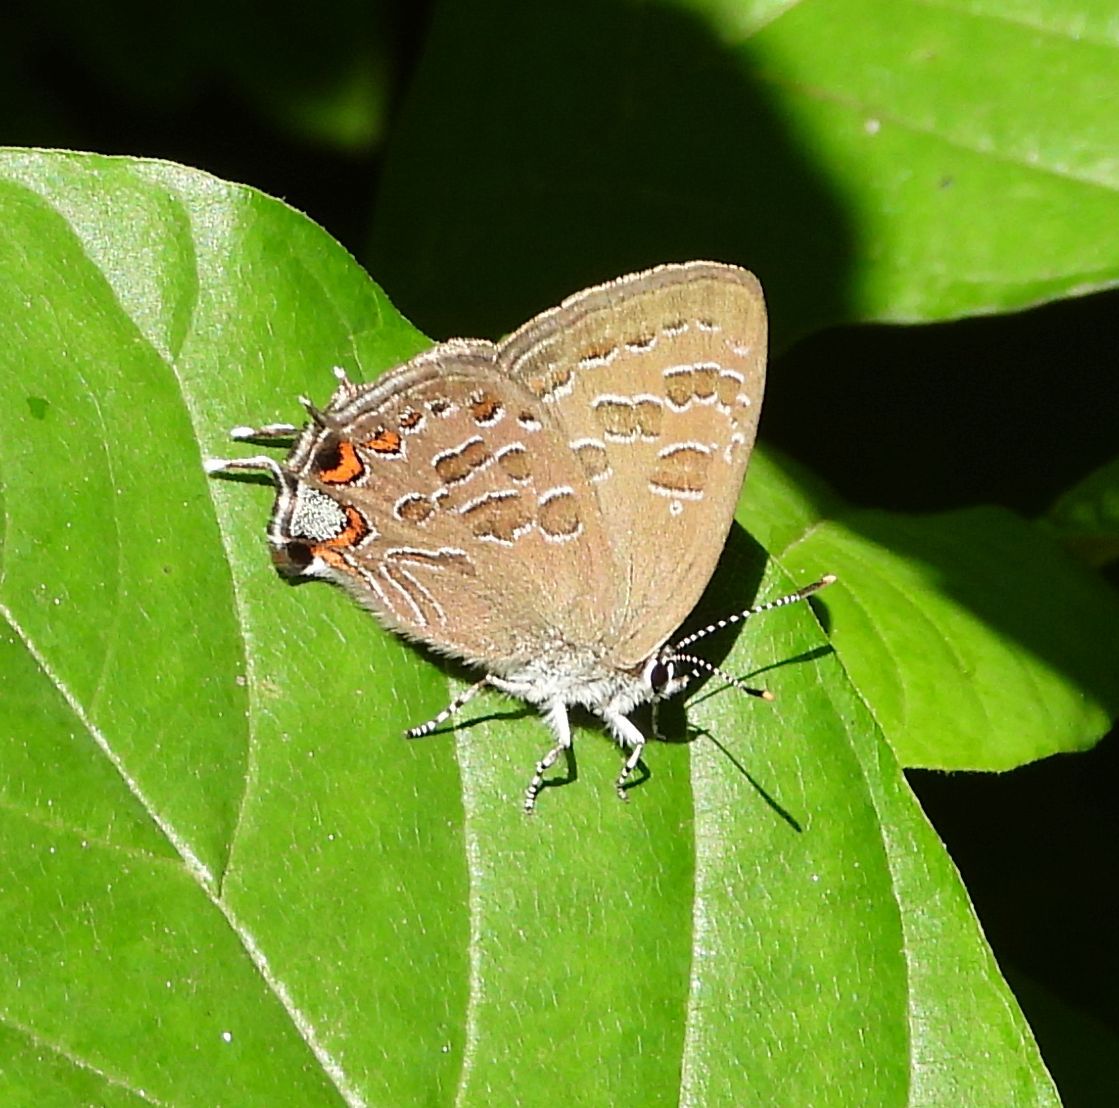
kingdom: Animalia
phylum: Arthropoda
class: Insecta
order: Lepidoptera
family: Lycaenidae
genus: Satyrium
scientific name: Satyrium liparops
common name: Striped hairstreak
